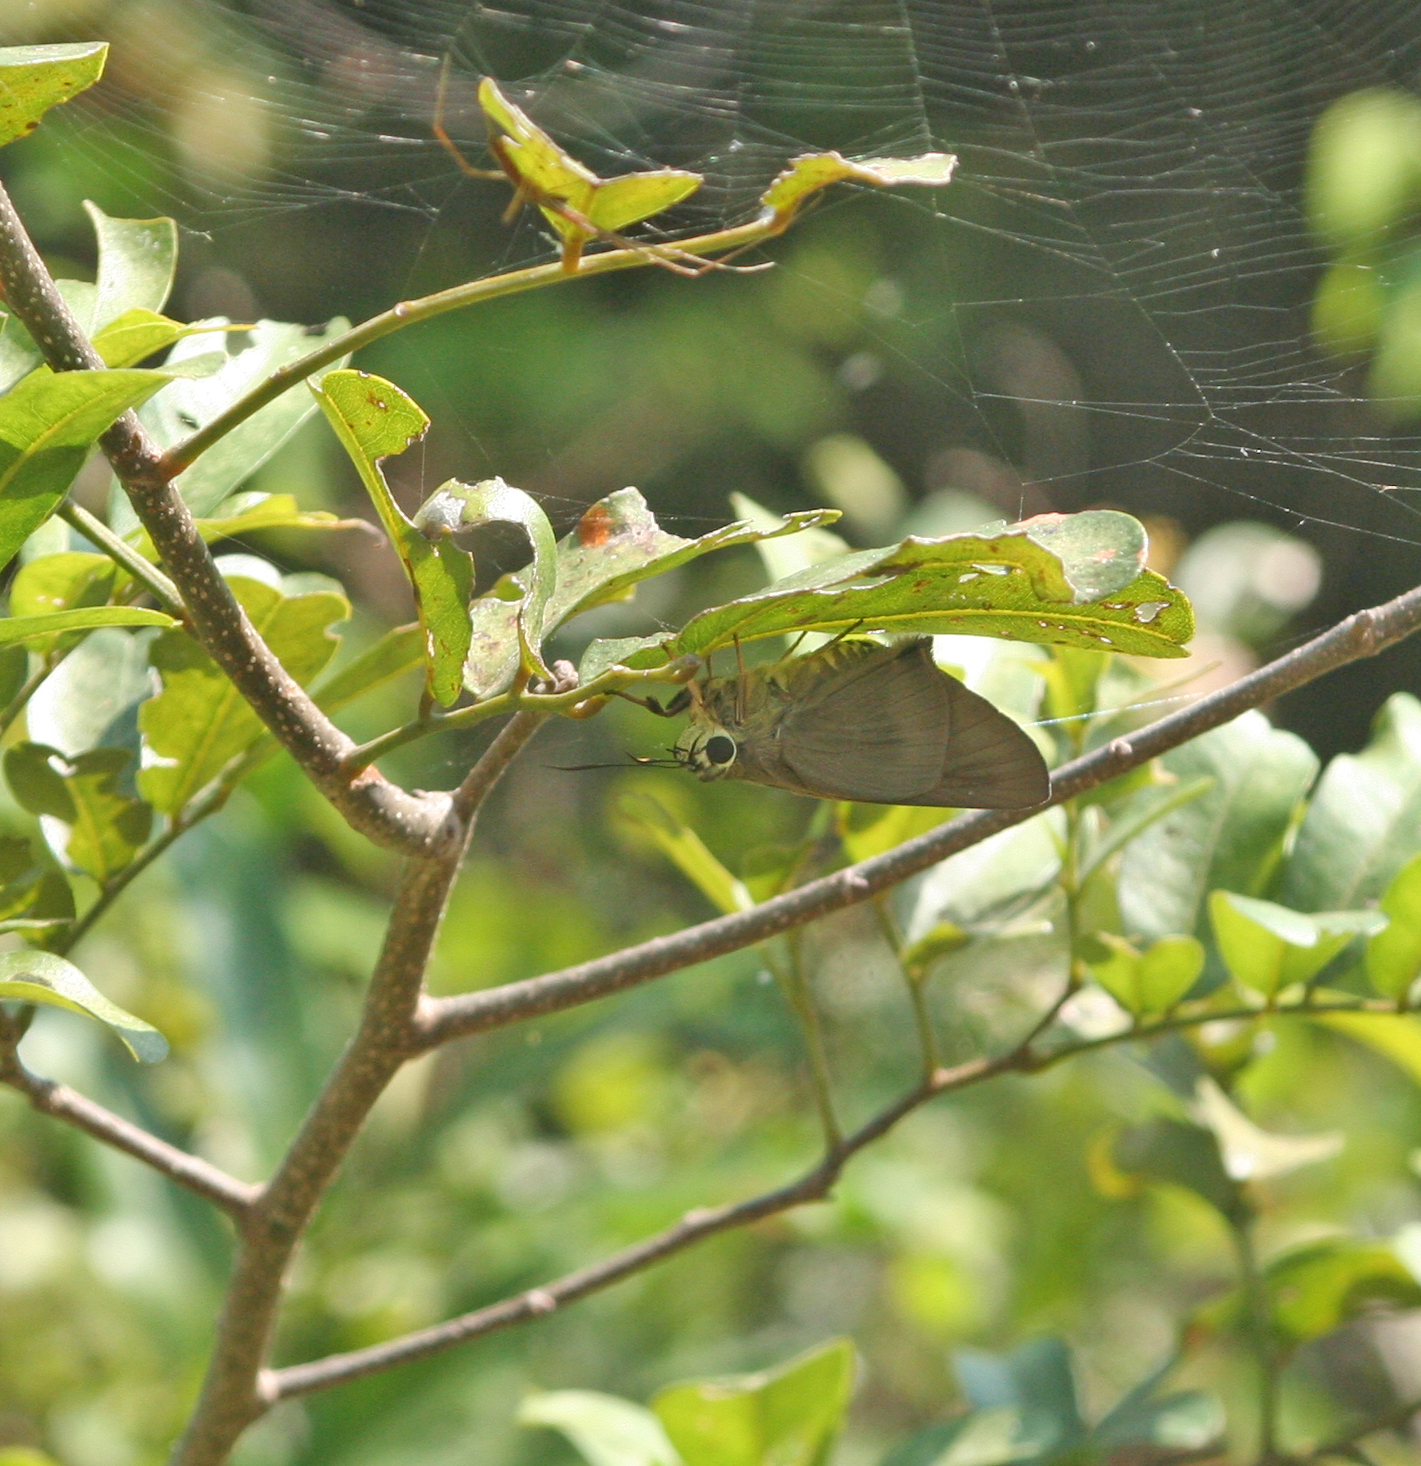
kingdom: Animalia
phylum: Arthropoda
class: Insecta
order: Lepidoptera
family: Hesperiidae
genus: Badamia
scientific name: Badamia exclamationis
